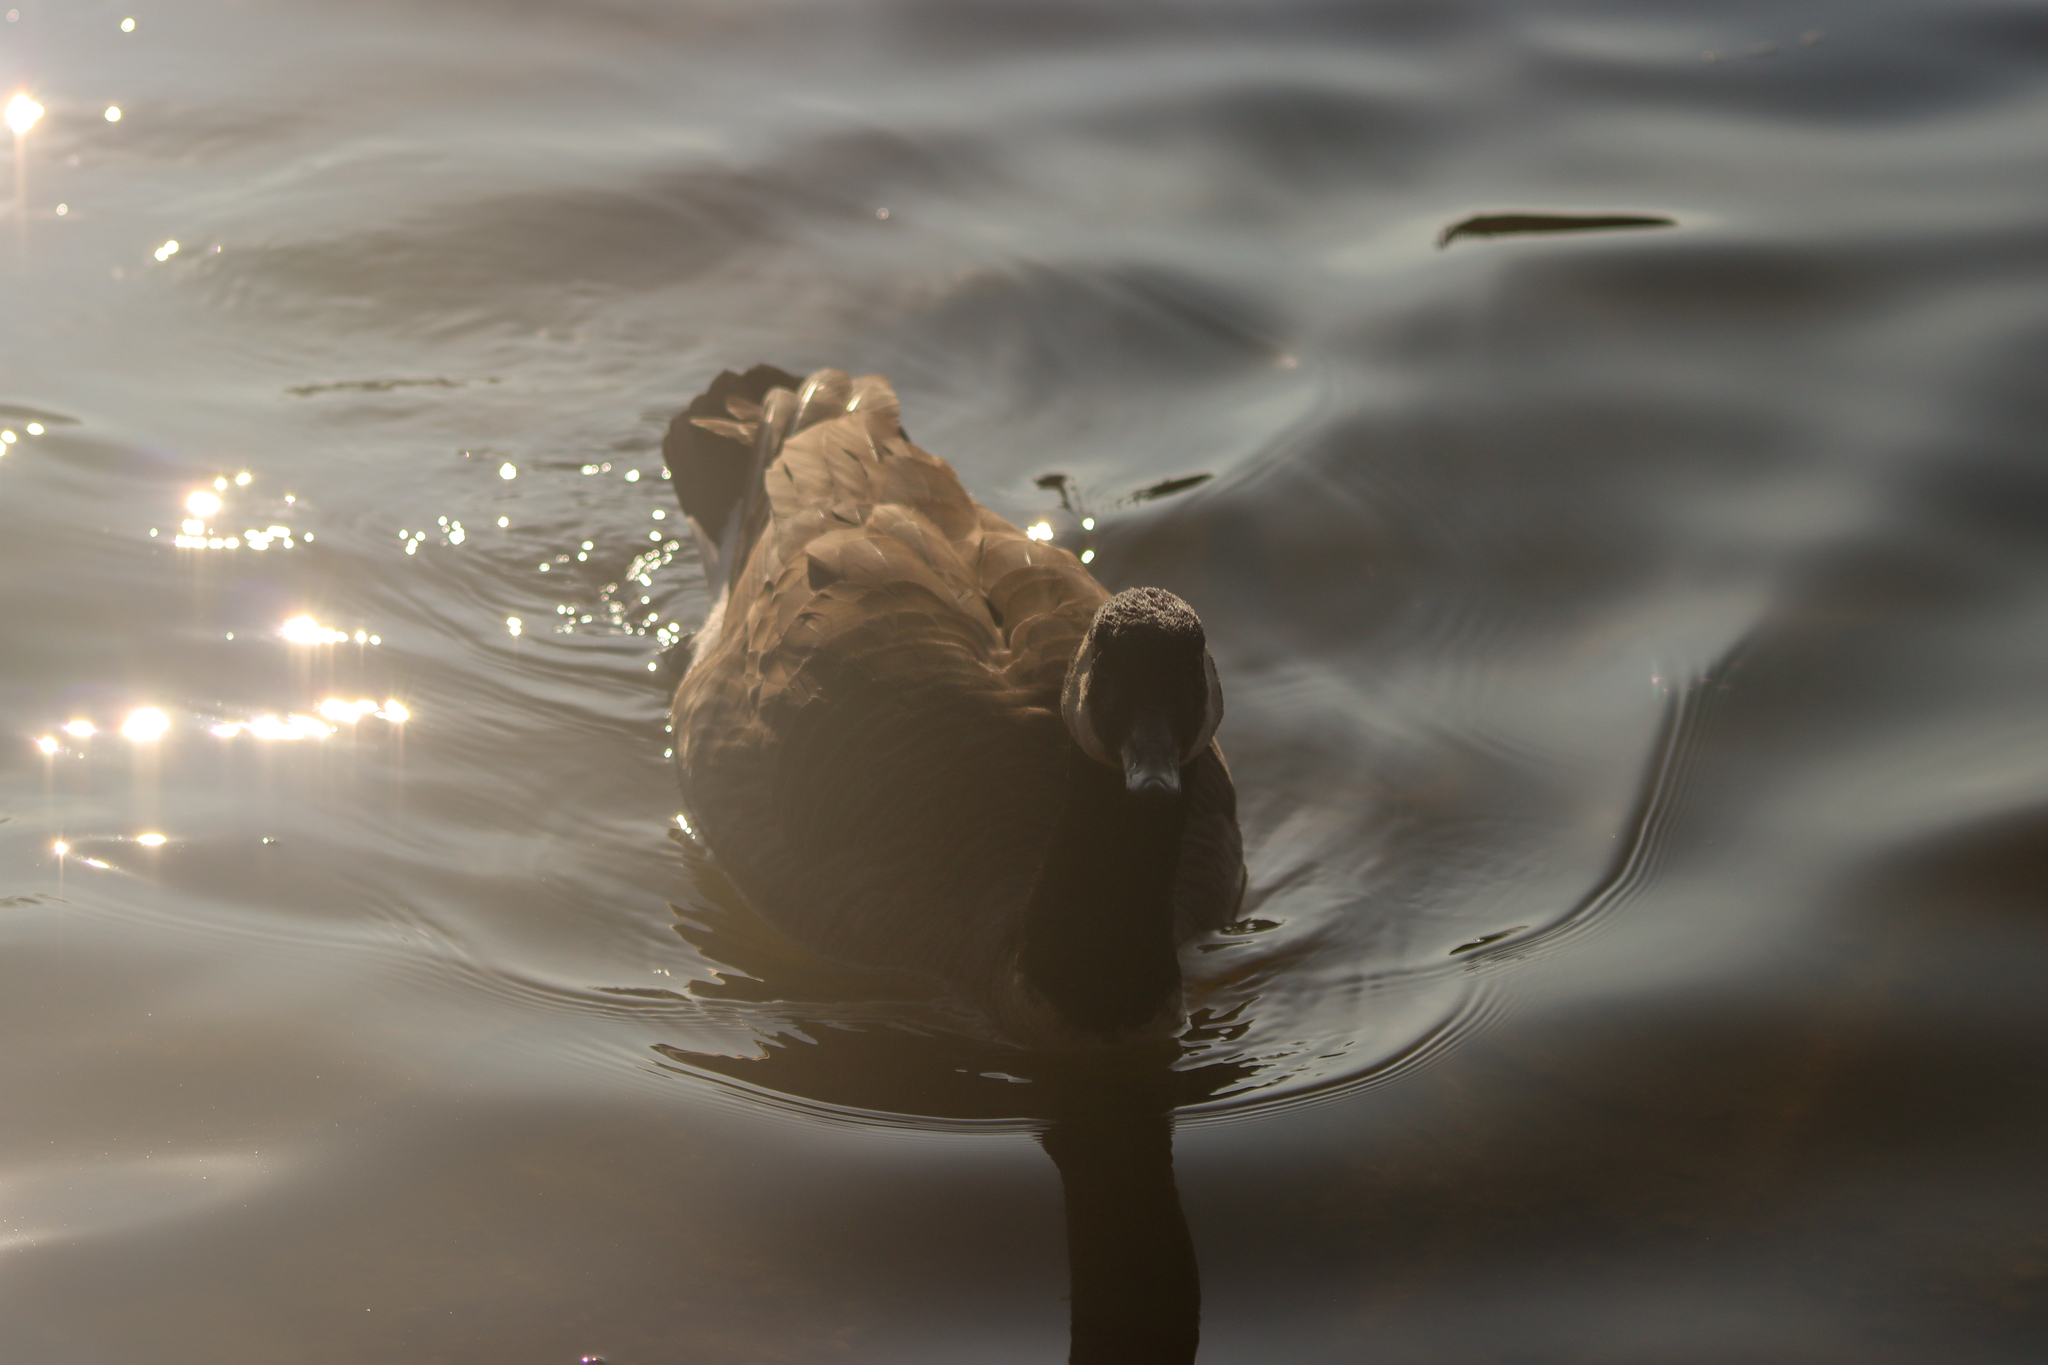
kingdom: Animalia
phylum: Chordata
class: Aves
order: Anseriformes
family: Anatidae
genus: Branta
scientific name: Branta canadensis
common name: Canada goose
